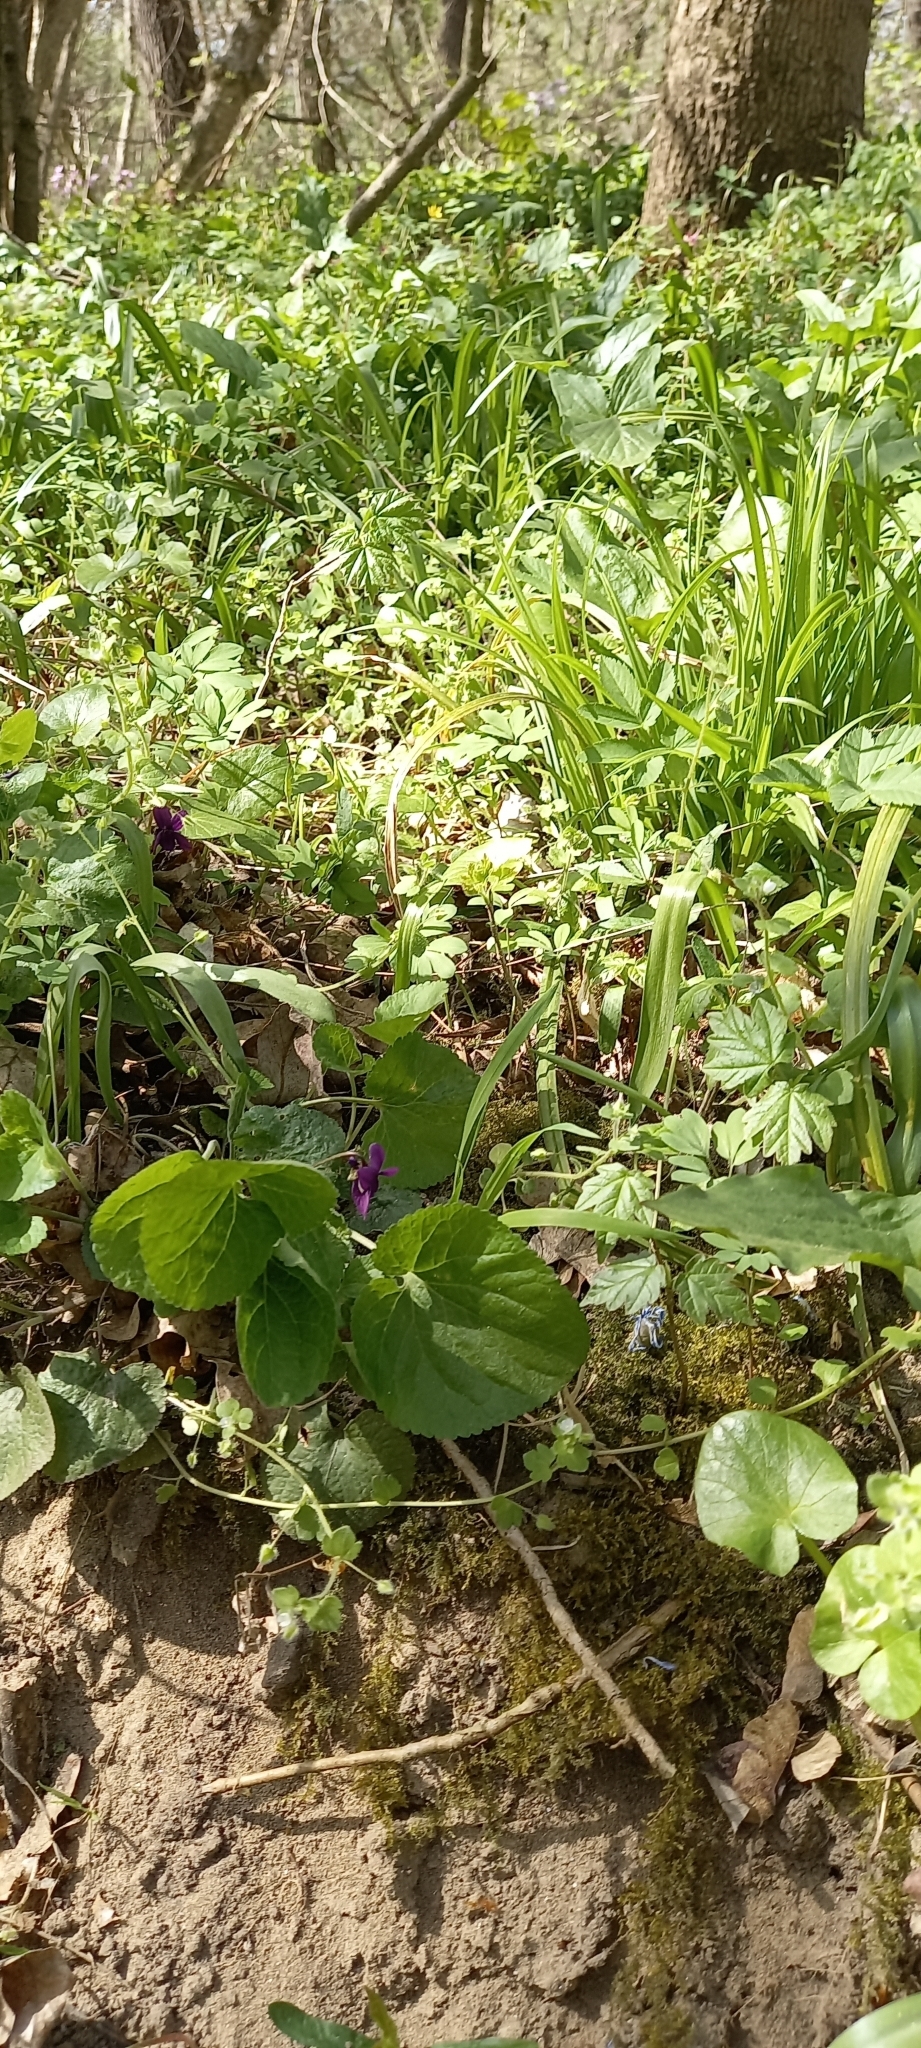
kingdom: Plantae
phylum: Tracheophyta
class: Magnoliopsida
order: Malpighiales
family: Violaceae
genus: Viola
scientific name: Viola odorata
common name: Sweet violet
